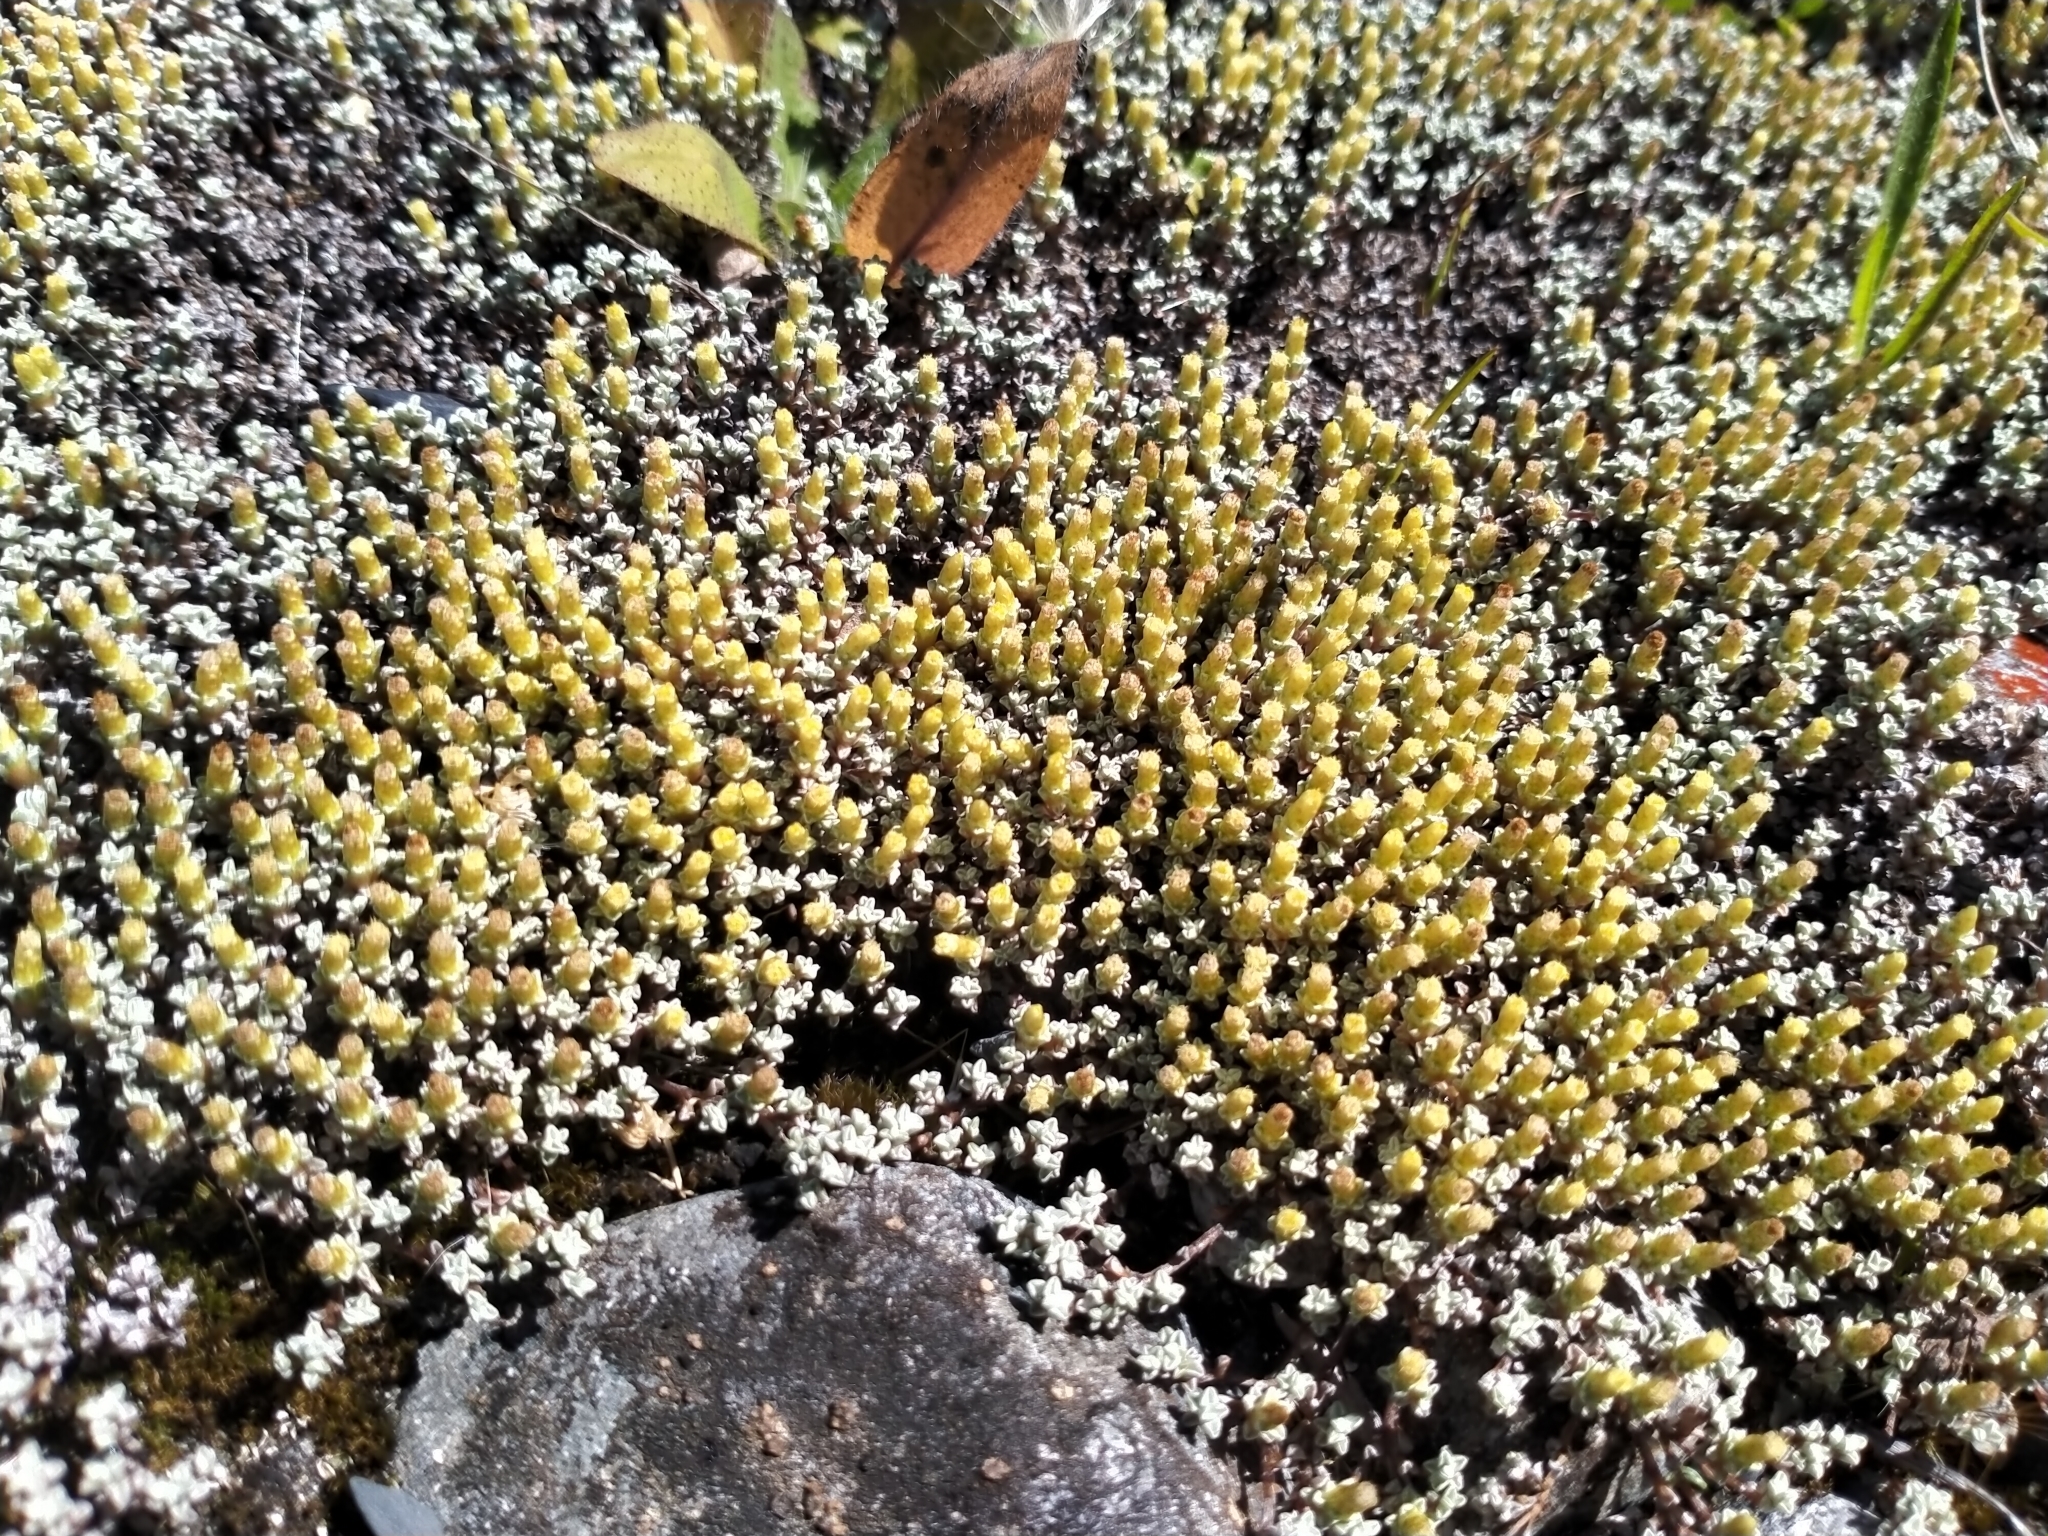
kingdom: Plantae
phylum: Tracheophyta
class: Magnoliopsida
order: Asterales
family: Asteraceae
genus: Raoulia
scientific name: Raoulia hookeri
